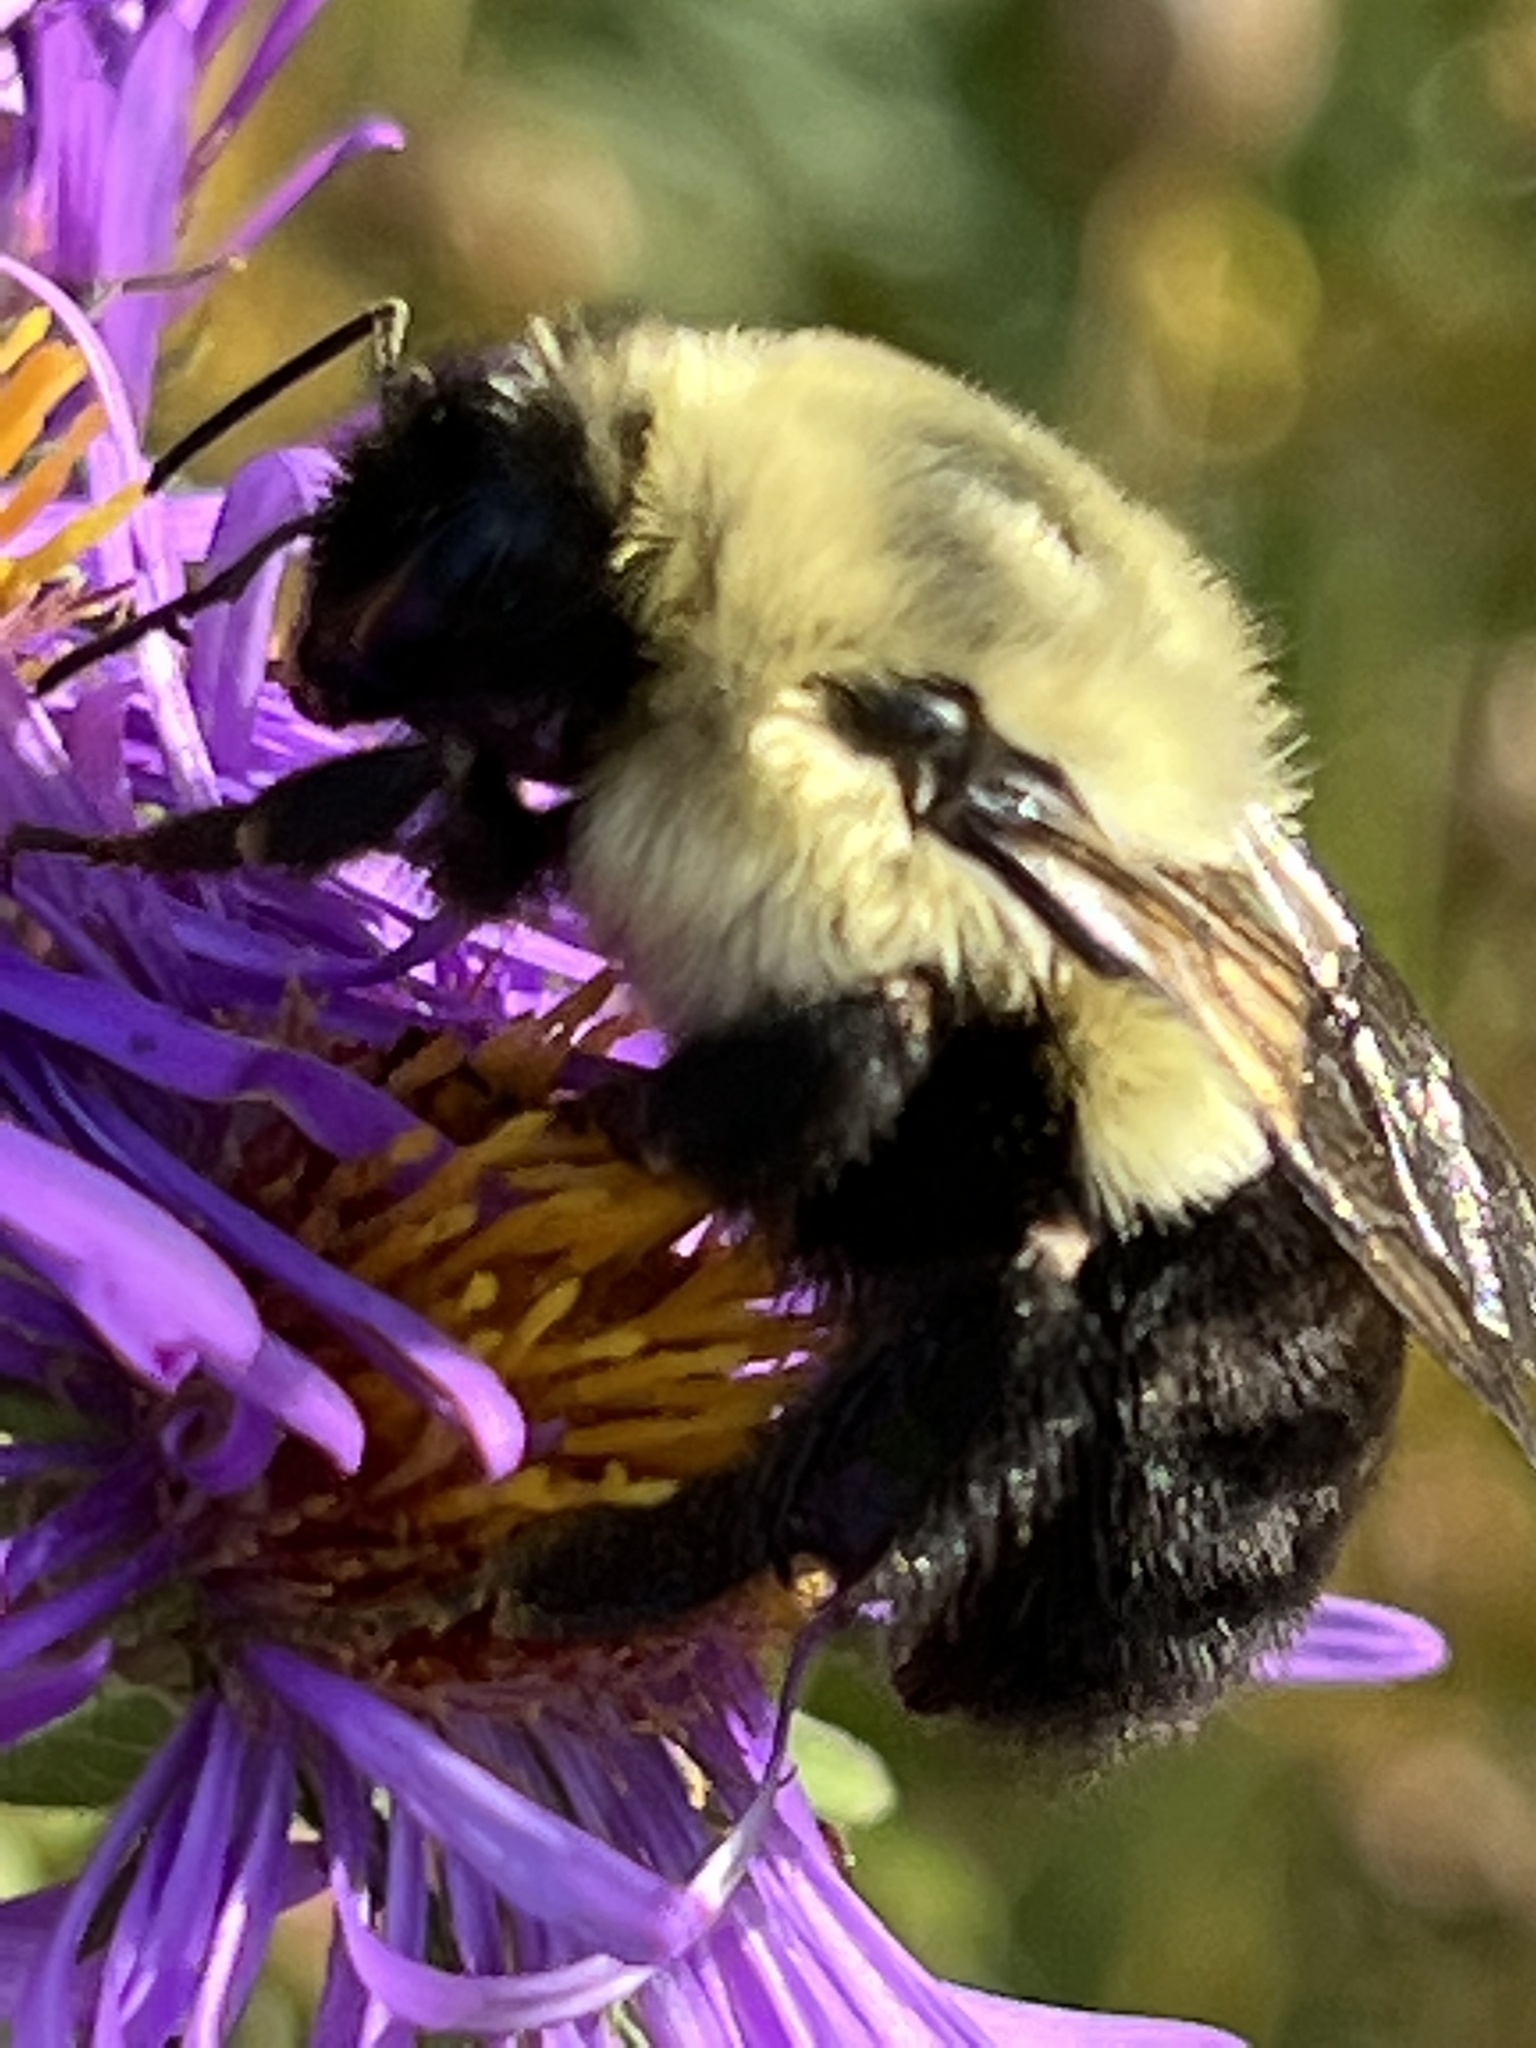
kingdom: Animalia
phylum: Arthropoda
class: Insecta
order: Hymenoptera
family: Apidae
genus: Bombus
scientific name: Bombus impatiens
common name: Common eastern bumble bee
